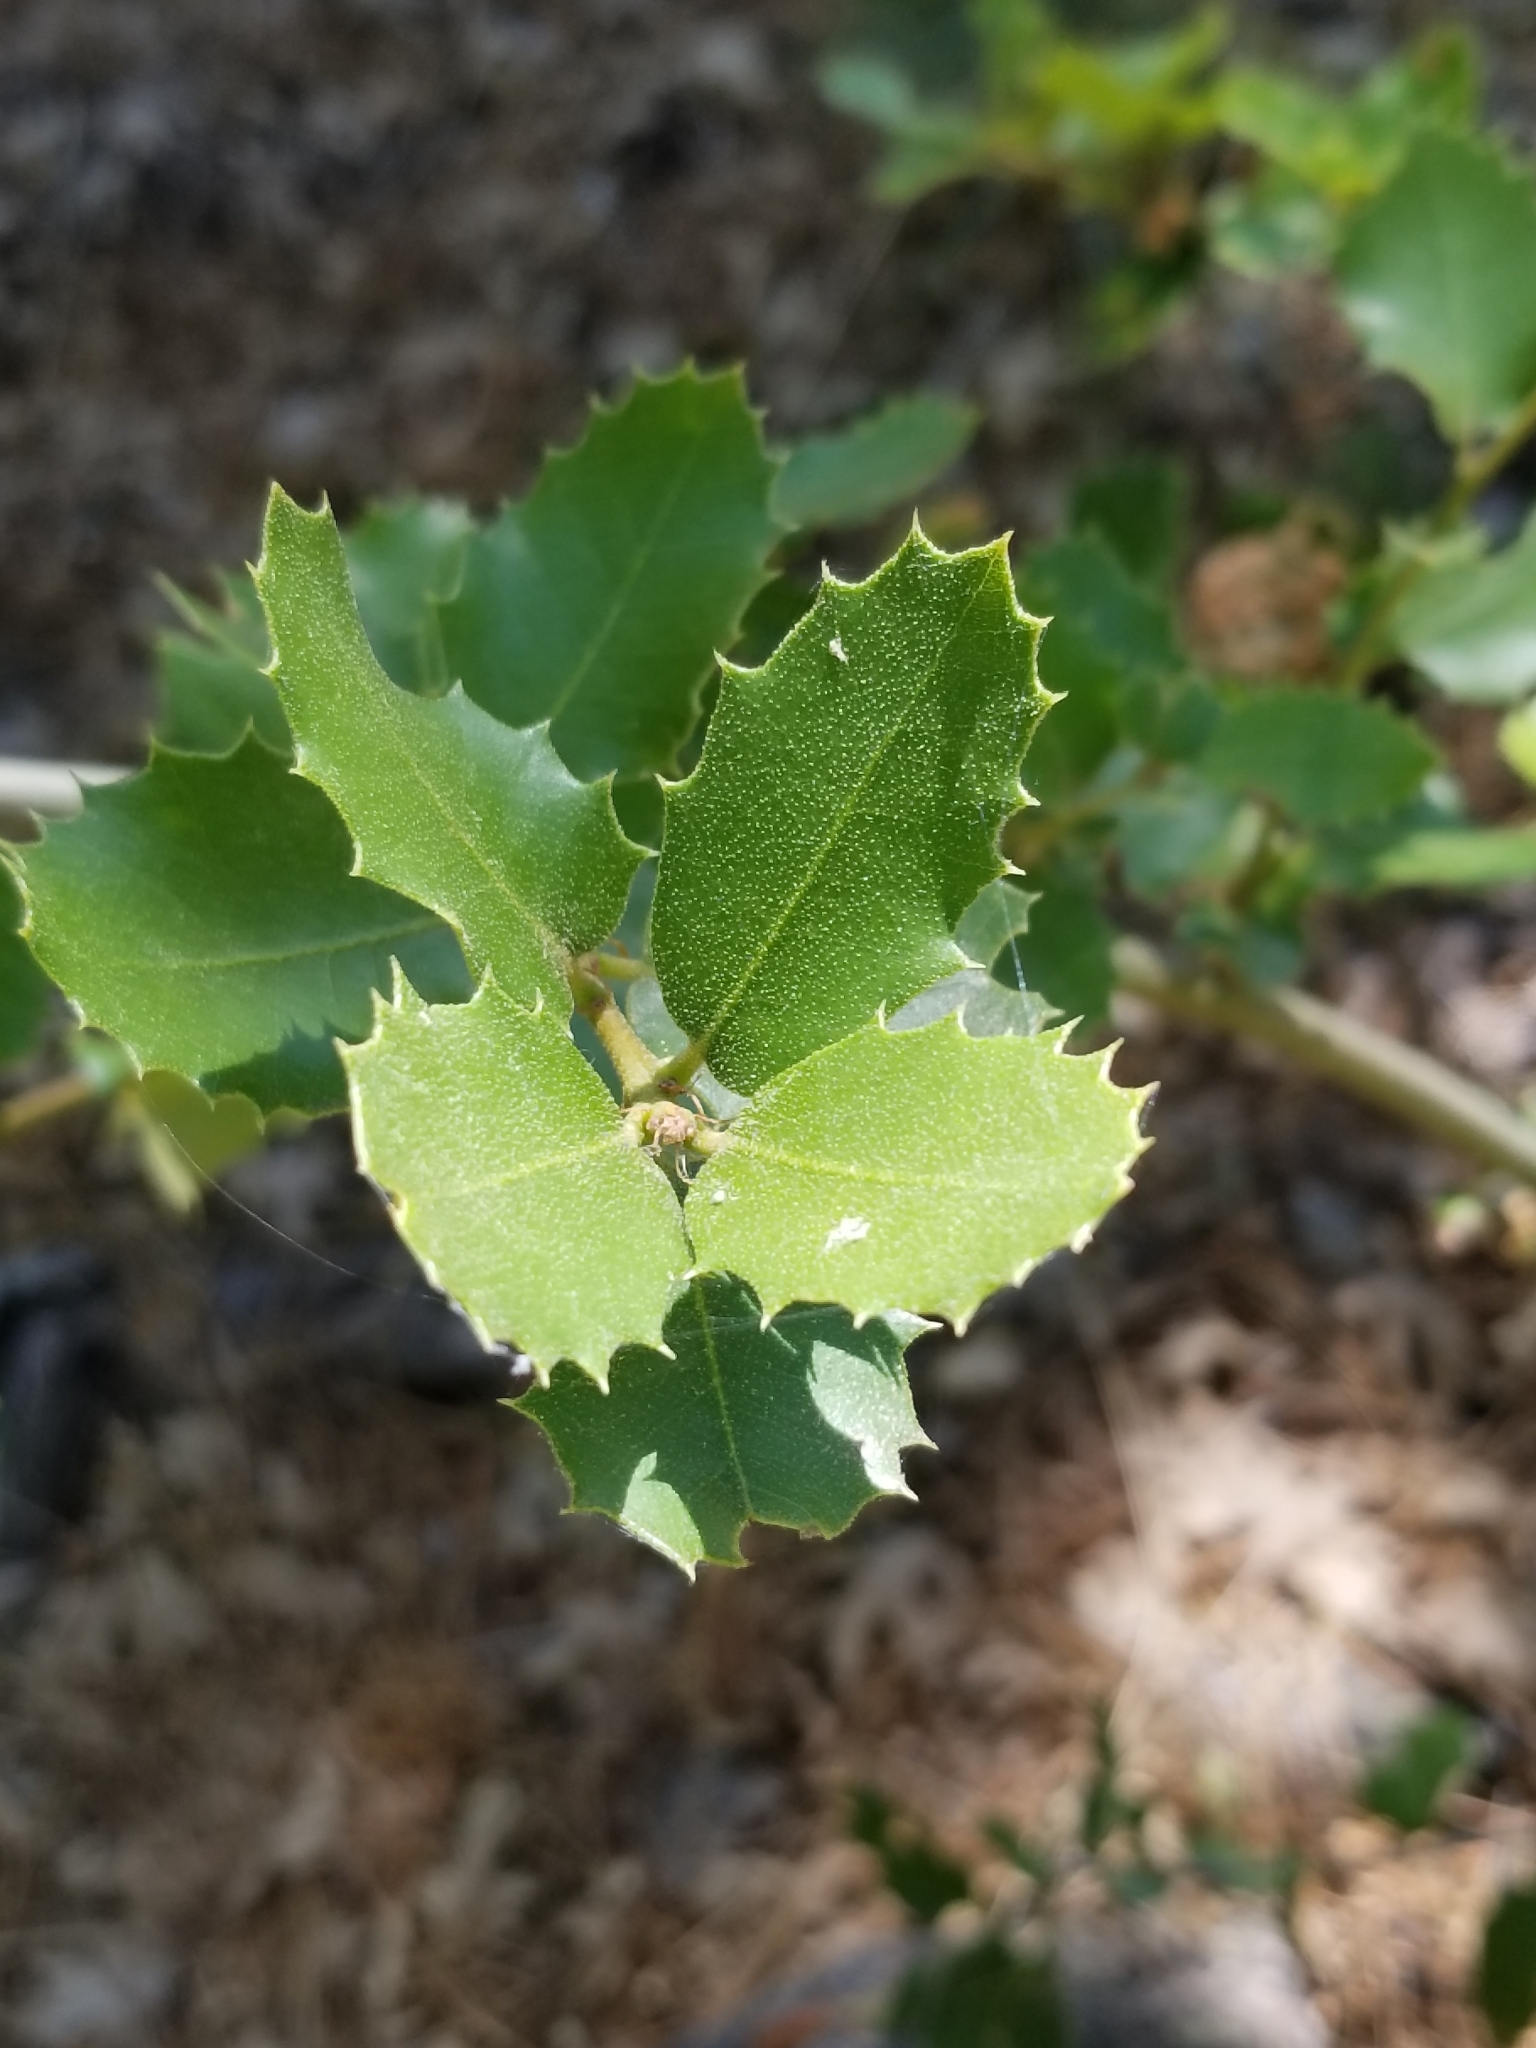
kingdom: Plantae
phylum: Tracheophyta
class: Magnoliopsida
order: Fagales
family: Fagaceae
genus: Quercus
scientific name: Quercus chrysolepis
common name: Canyon live oak
